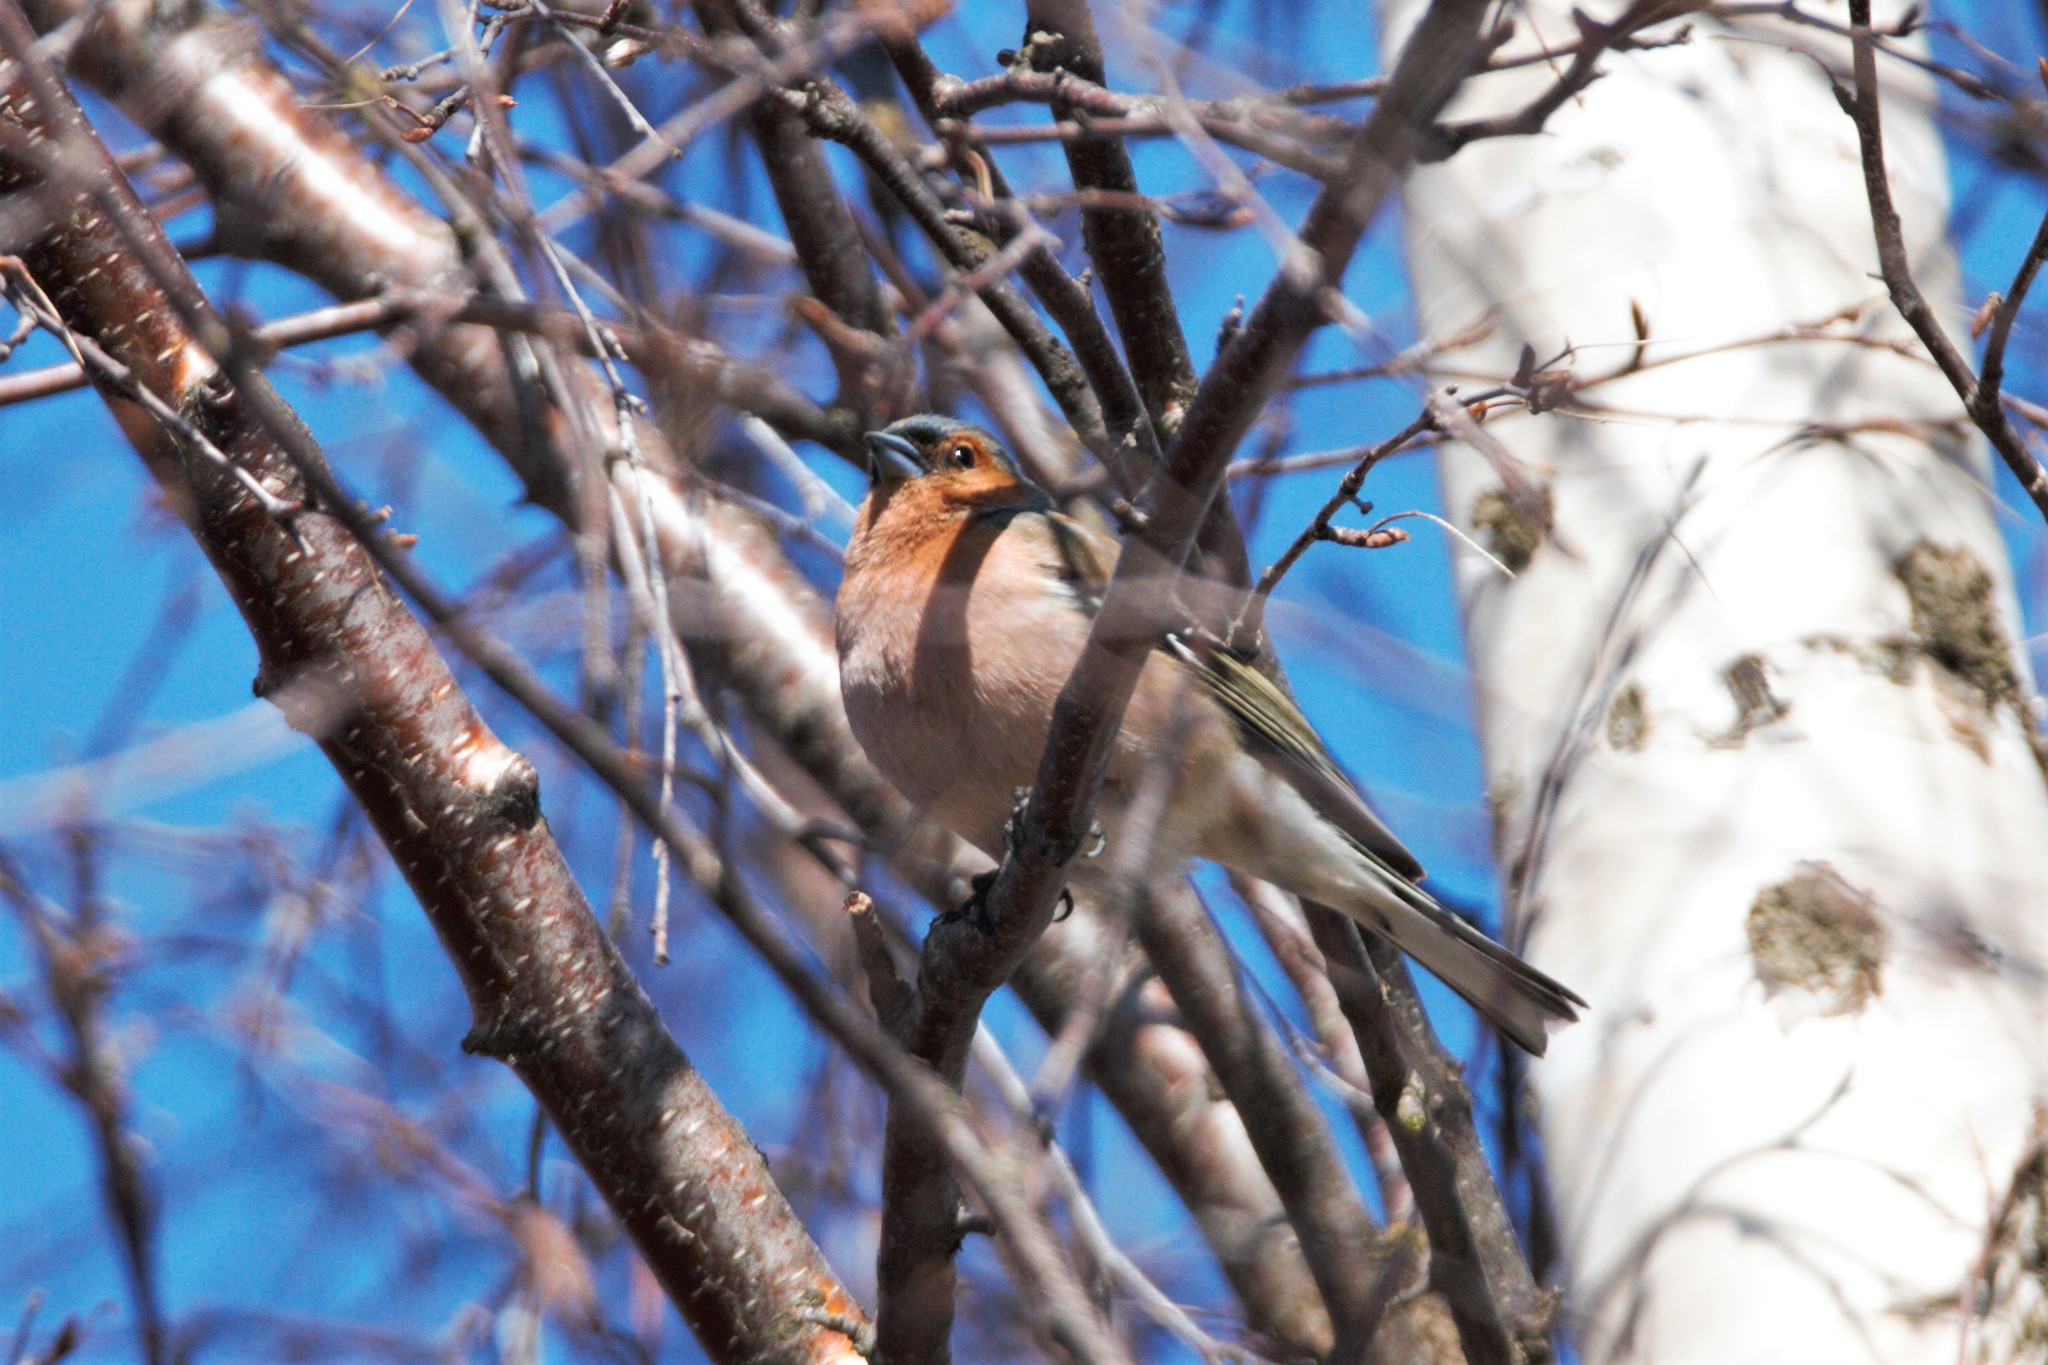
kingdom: Animalia
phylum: Chordata
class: Aves
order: Passeriformes
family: Fringillidae
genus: Fringilla
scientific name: Fringilla coelebs
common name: Common chaffinch
